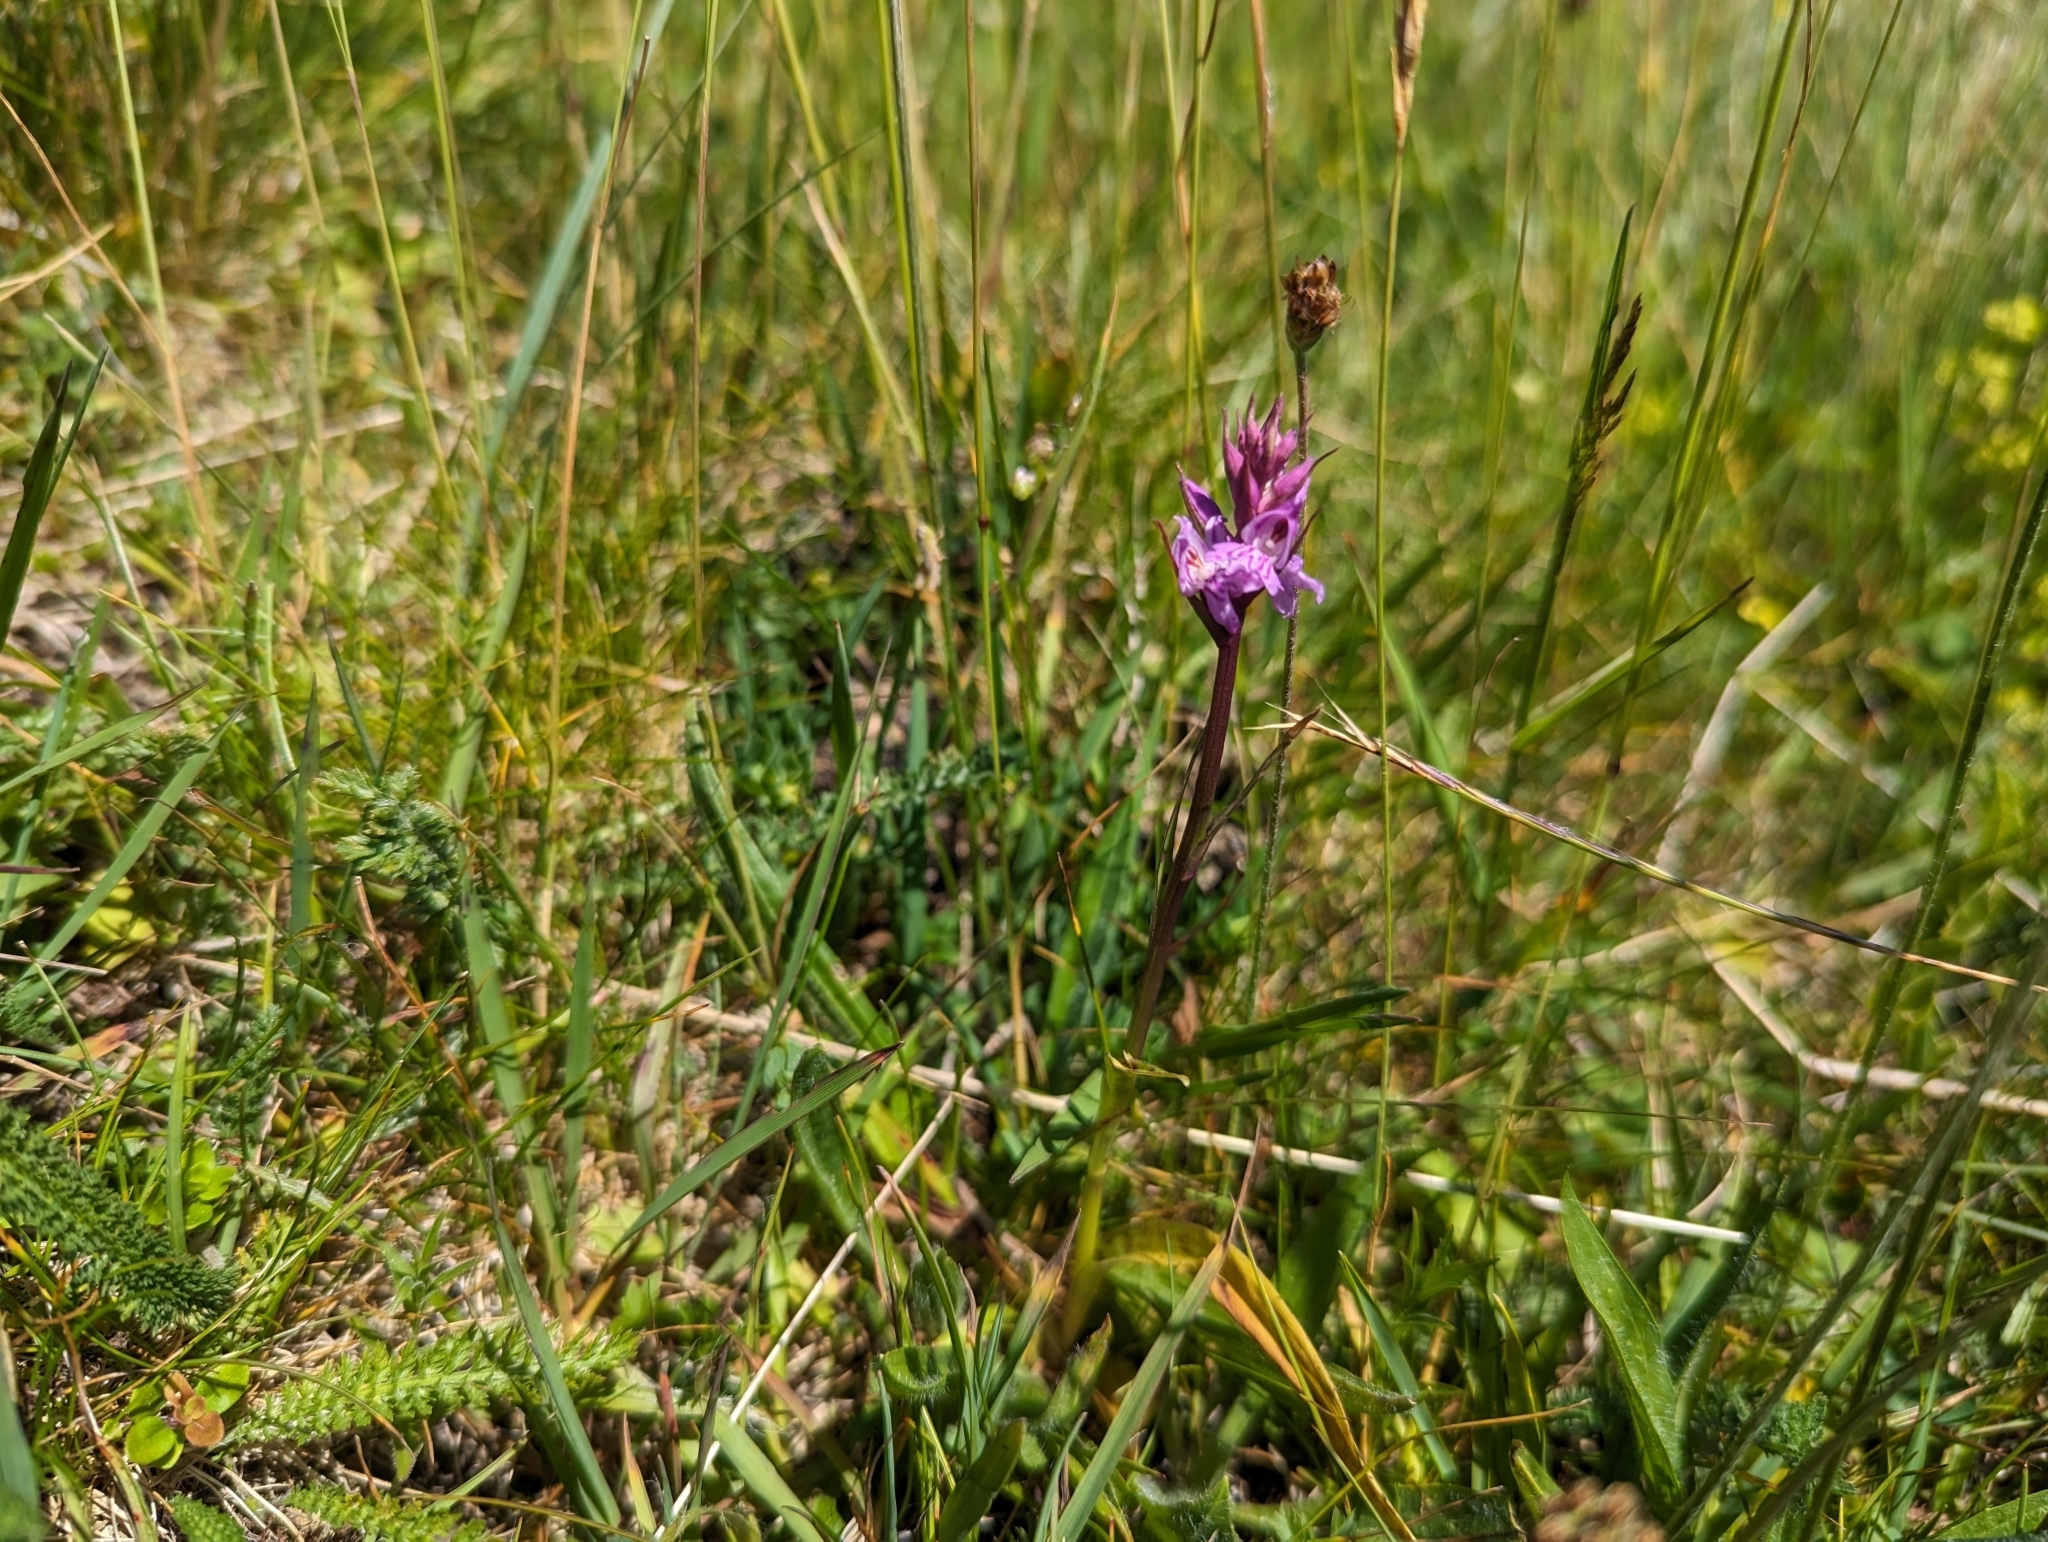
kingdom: Plantae
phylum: Tracheophyta
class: Liliopsida
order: Asparagales
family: Orchidaceae
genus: Dactylorhiza
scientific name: Dactylorhiza maculata
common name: Heath spotted-orchid
